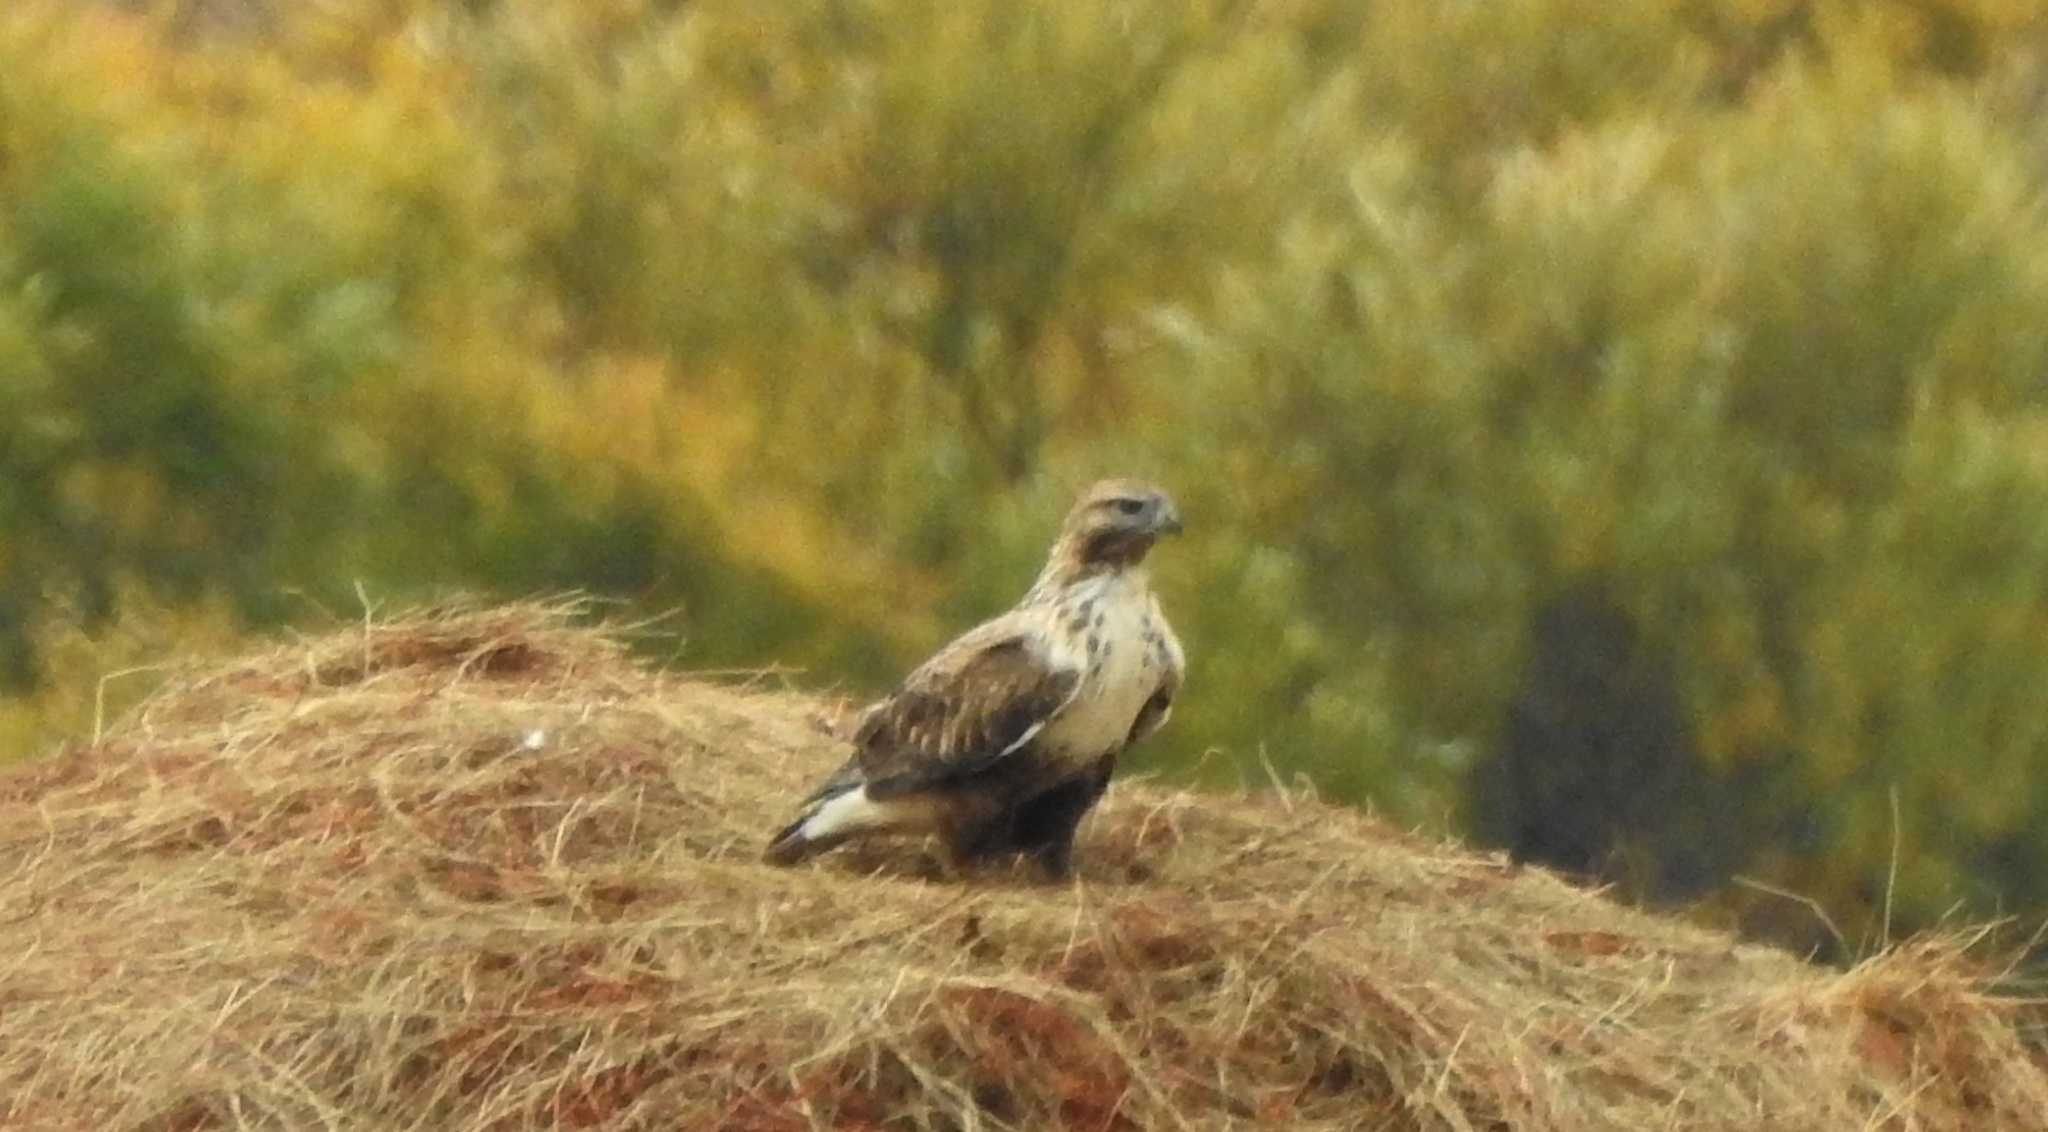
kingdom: Animalia
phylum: Chordata
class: Aves
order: Accipitriformes
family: Accipitridae
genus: Buteo
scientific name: Buteo hemilasius
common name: Upland buzzard
